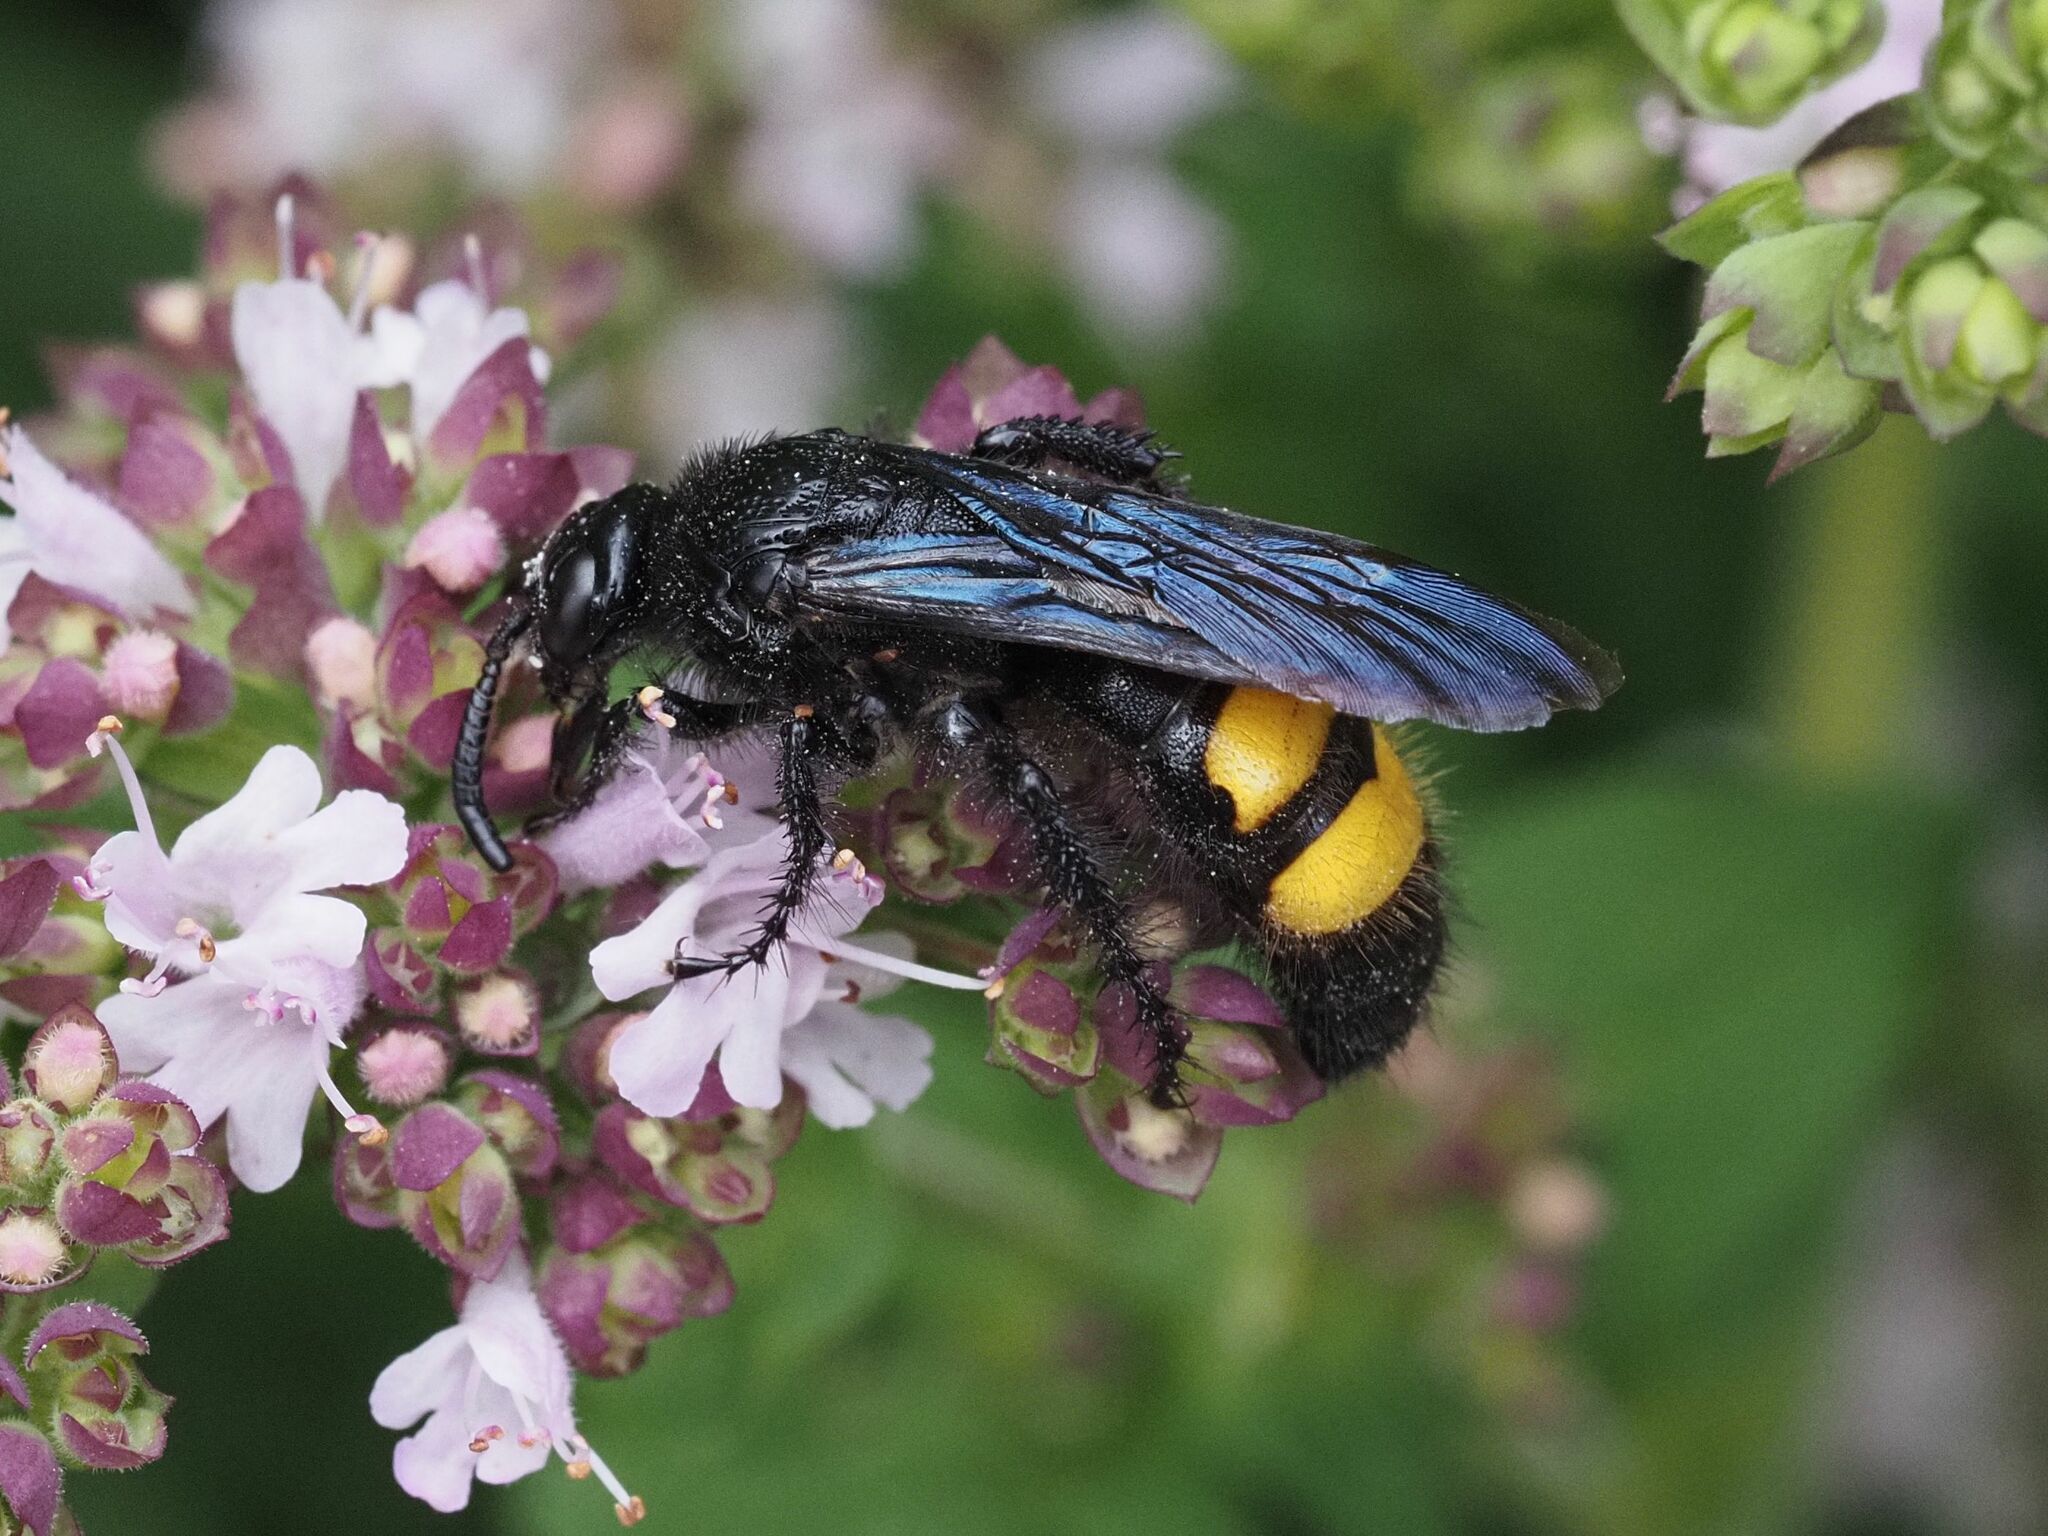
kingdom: Animalia
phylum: Arthropoda
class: Insecta
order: Hymenoptera
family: Scoliidae
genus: Scolia
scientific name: Scolia hirta
